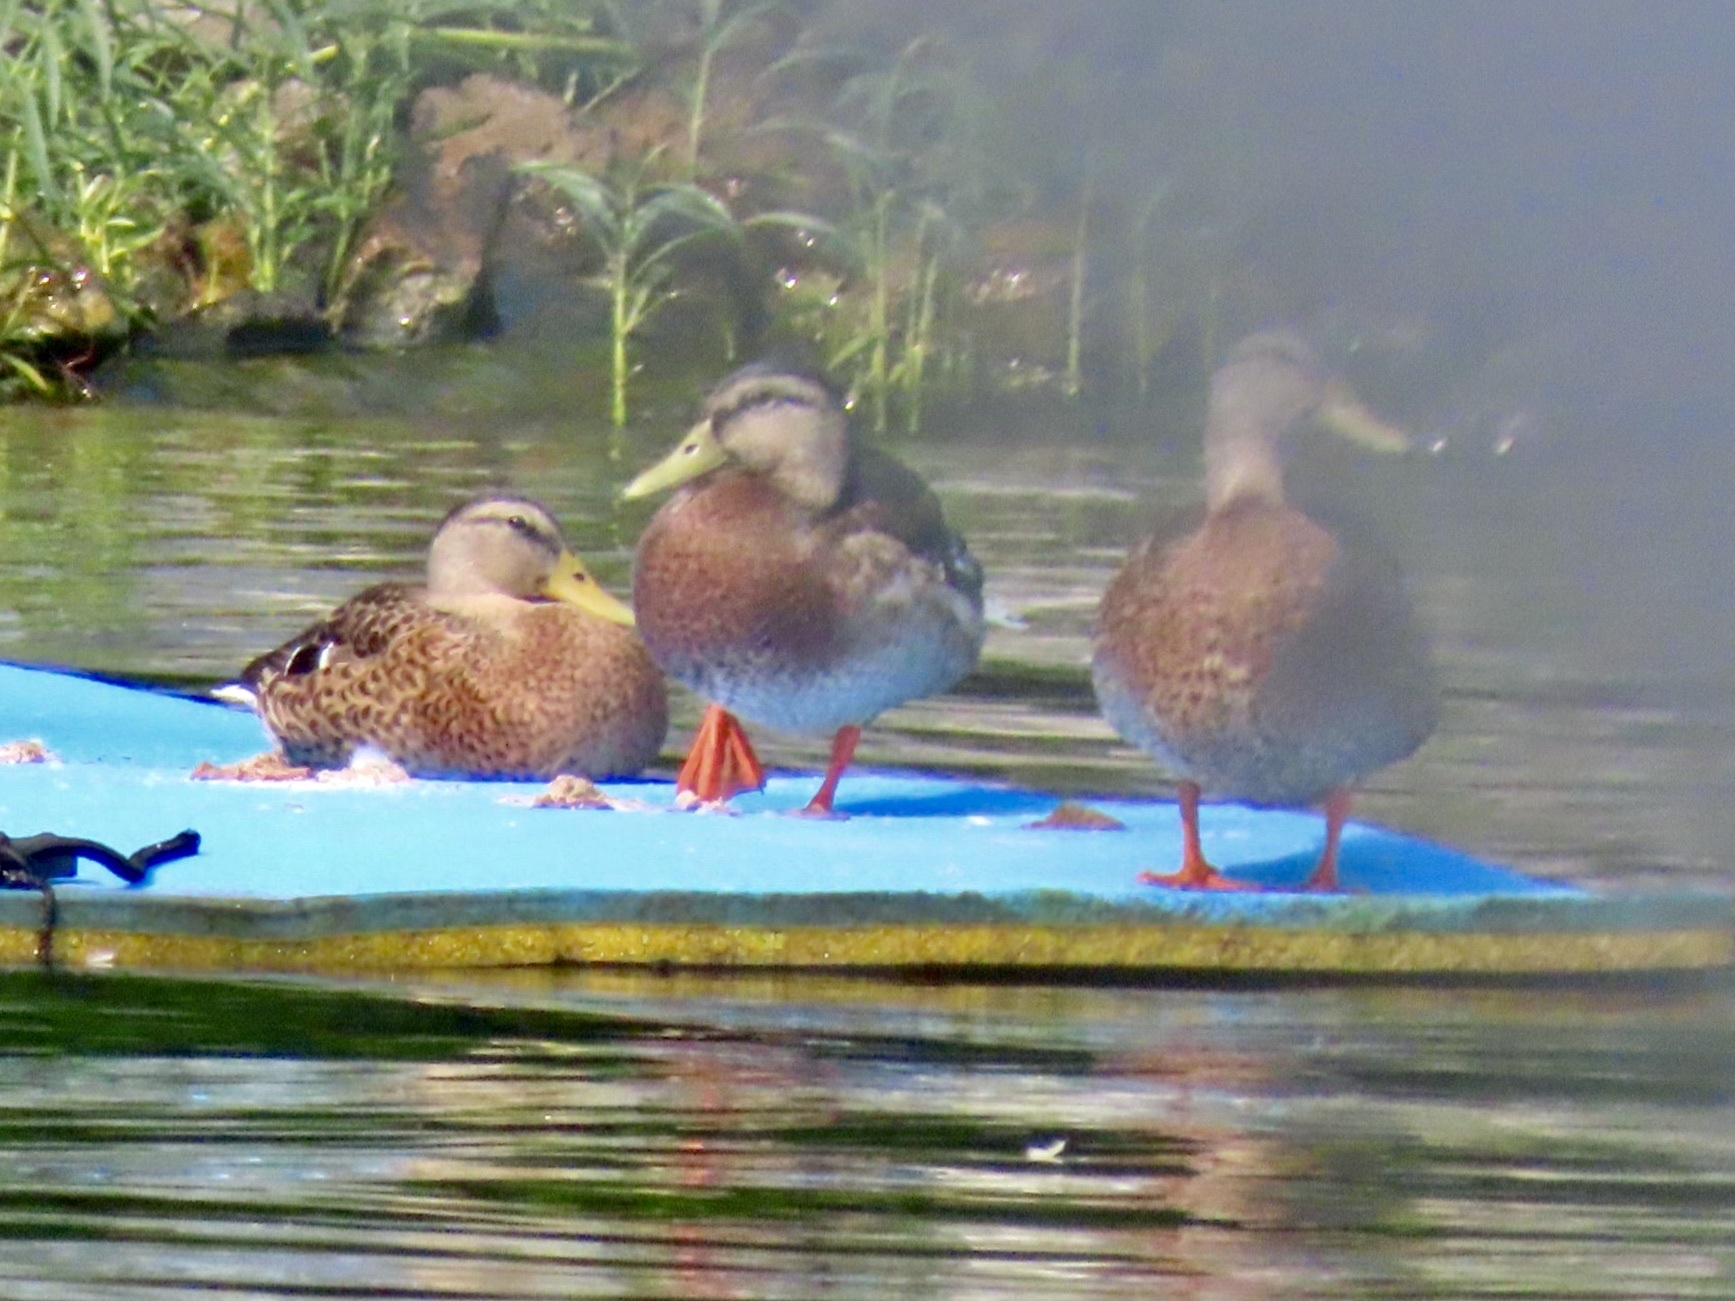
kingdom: Animalia
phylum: Chordata
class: Aves
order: Anseriformes
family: Anatidae
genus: Anas
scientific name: Anas platyrhynchos
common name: Mallard
